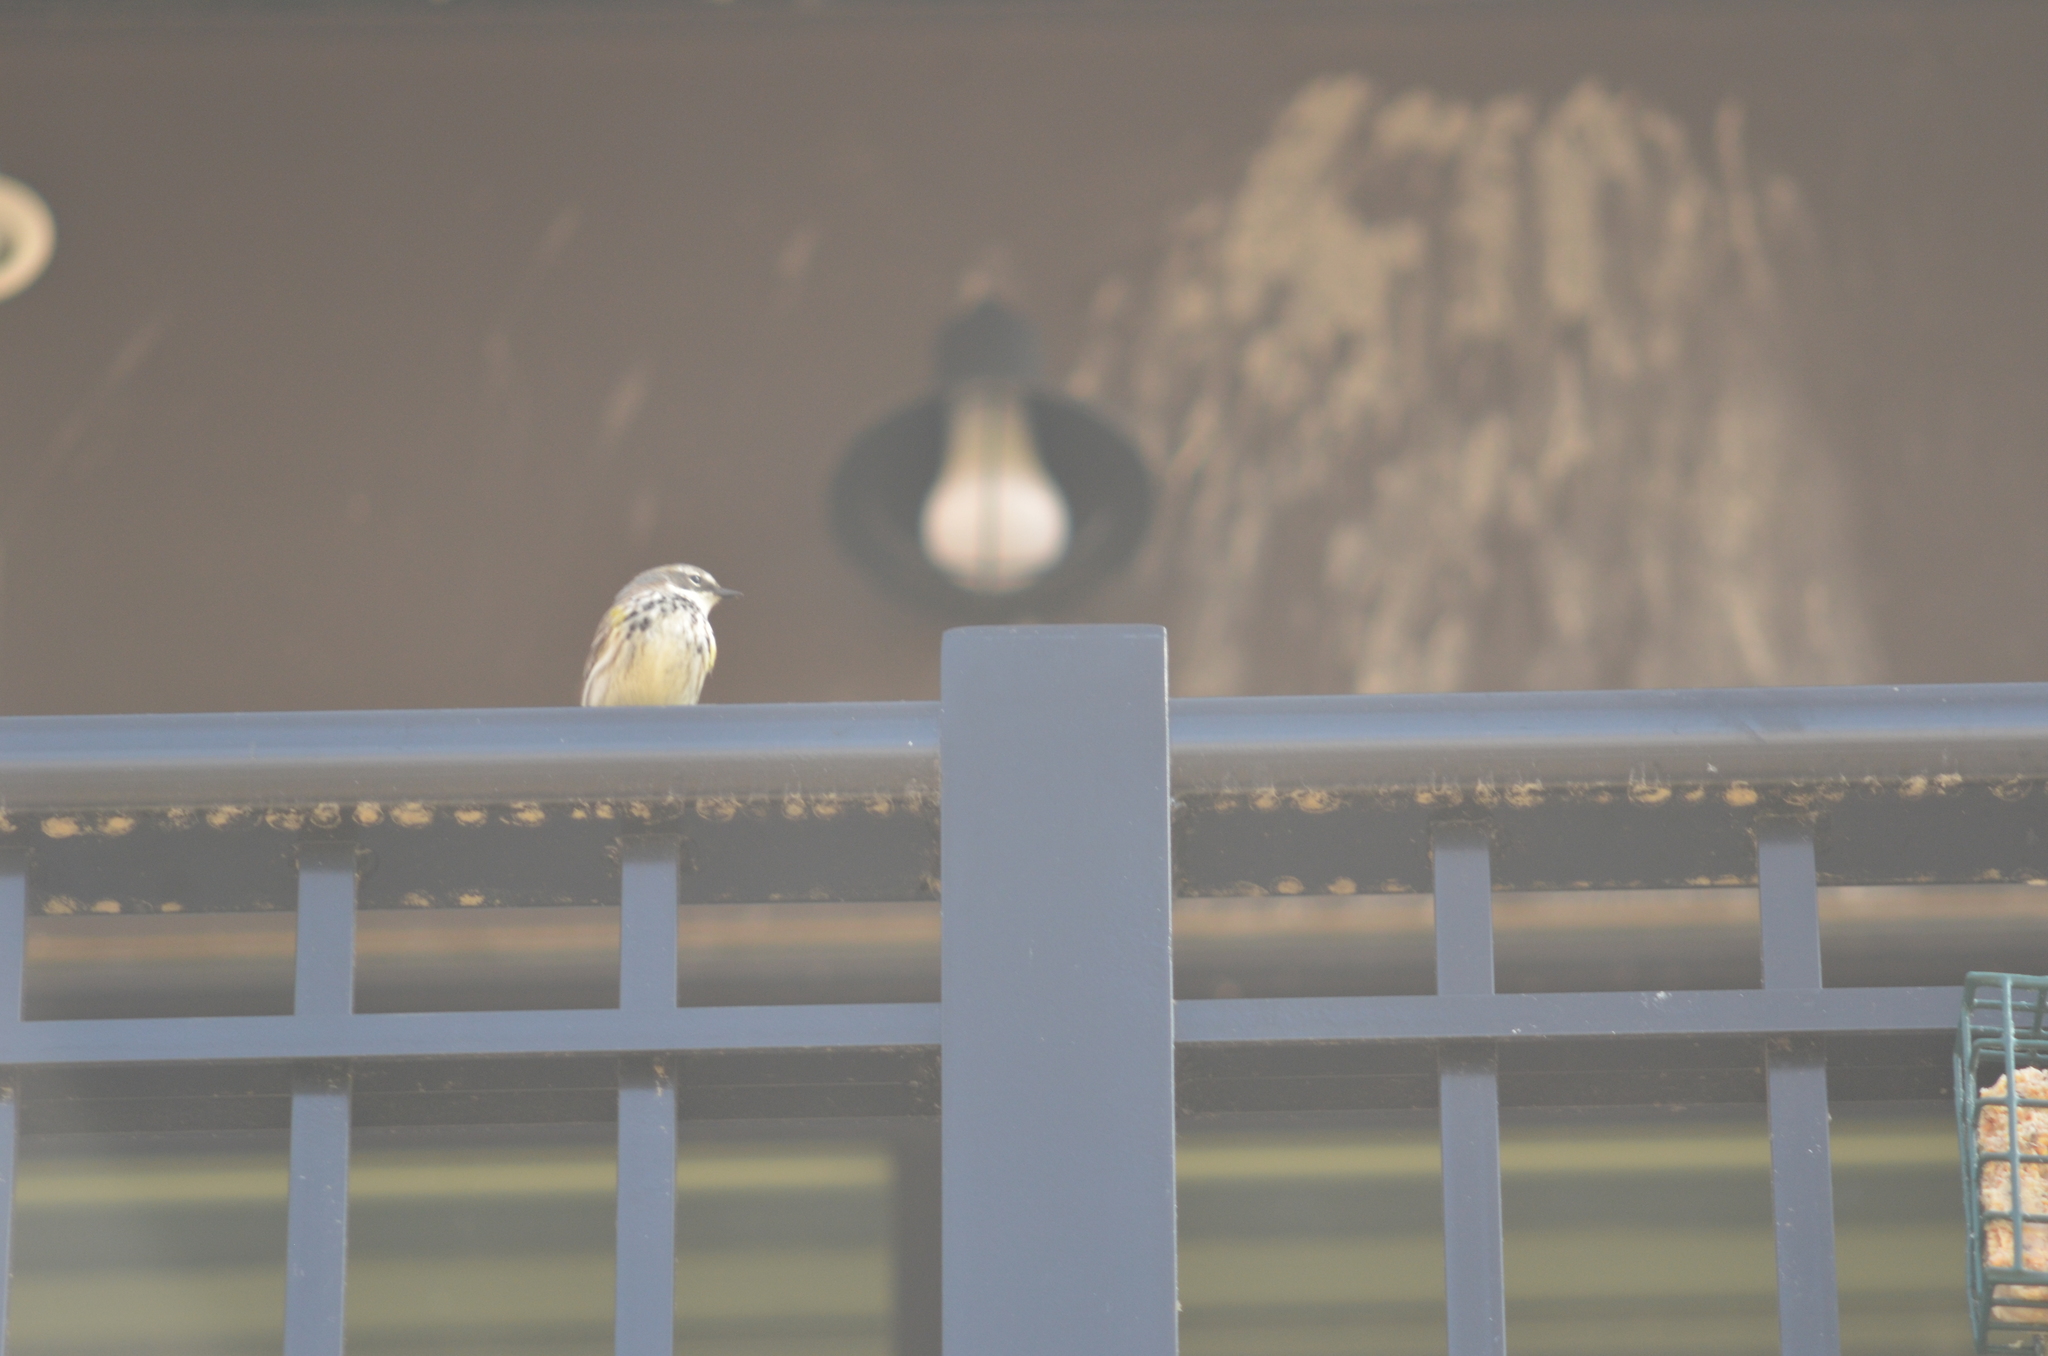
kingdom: Animalia
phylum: Chordata
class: Aves
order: Passeriformes
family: Parulidae
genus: Setophaga
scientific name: Setophaga coronata
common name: Myrtle warbler
